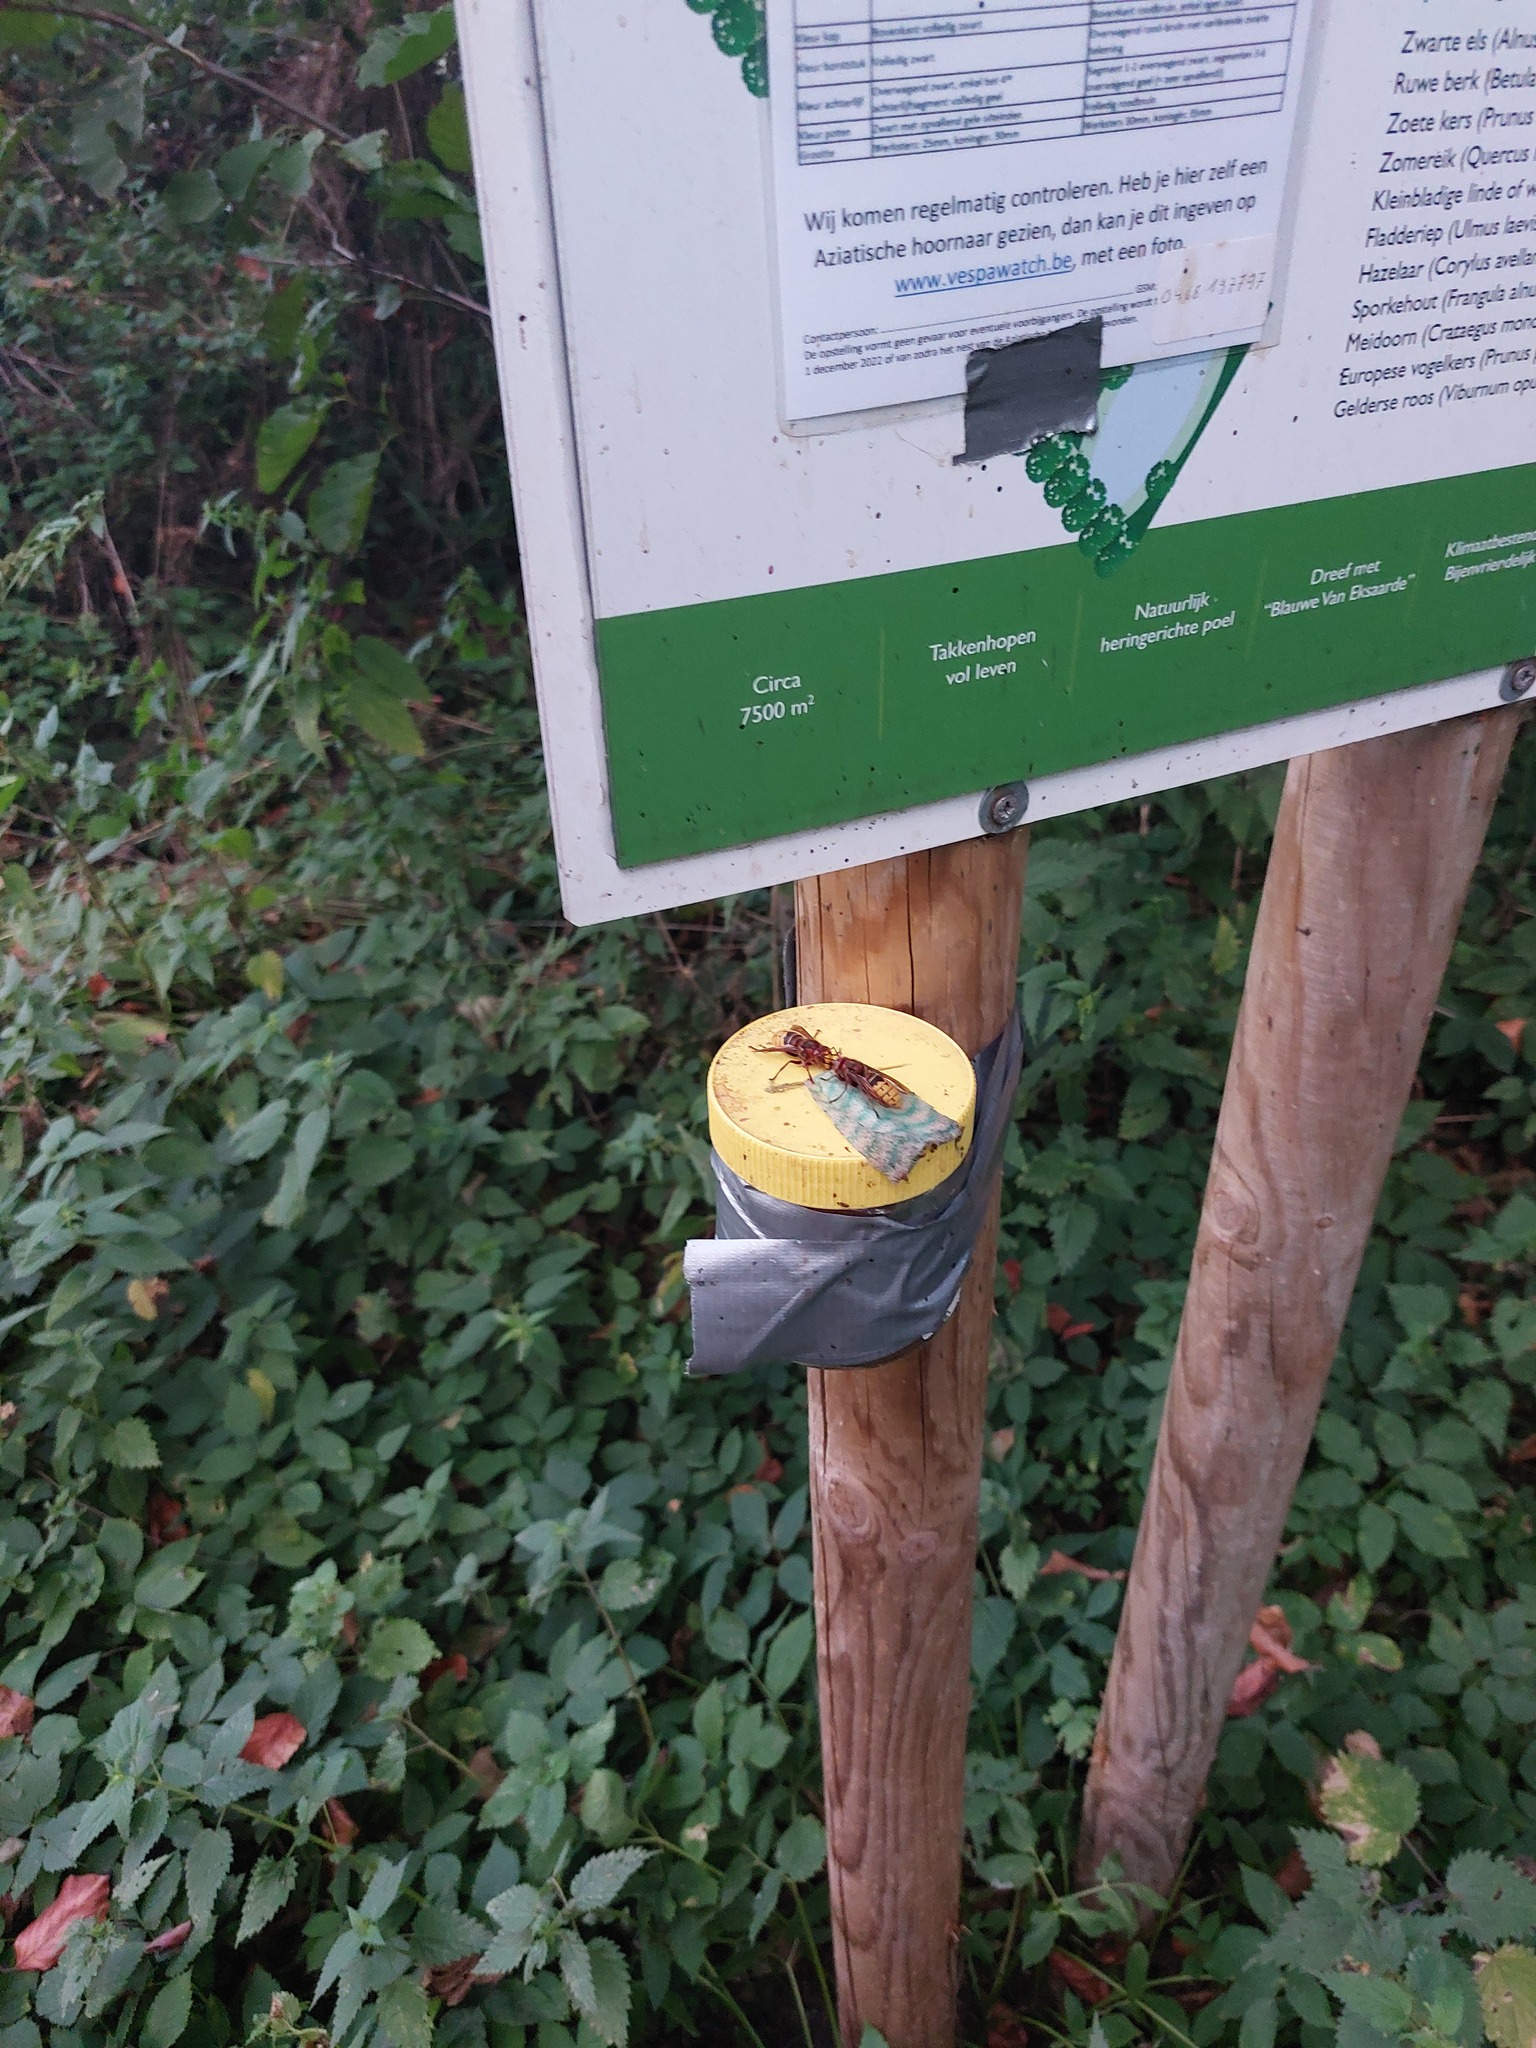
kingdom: Animalia
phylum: Arthropoda
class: Insecta
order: Hymenoptera
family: Vespidae
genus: Vespa
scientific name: Vespa crabro
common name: Hornet
